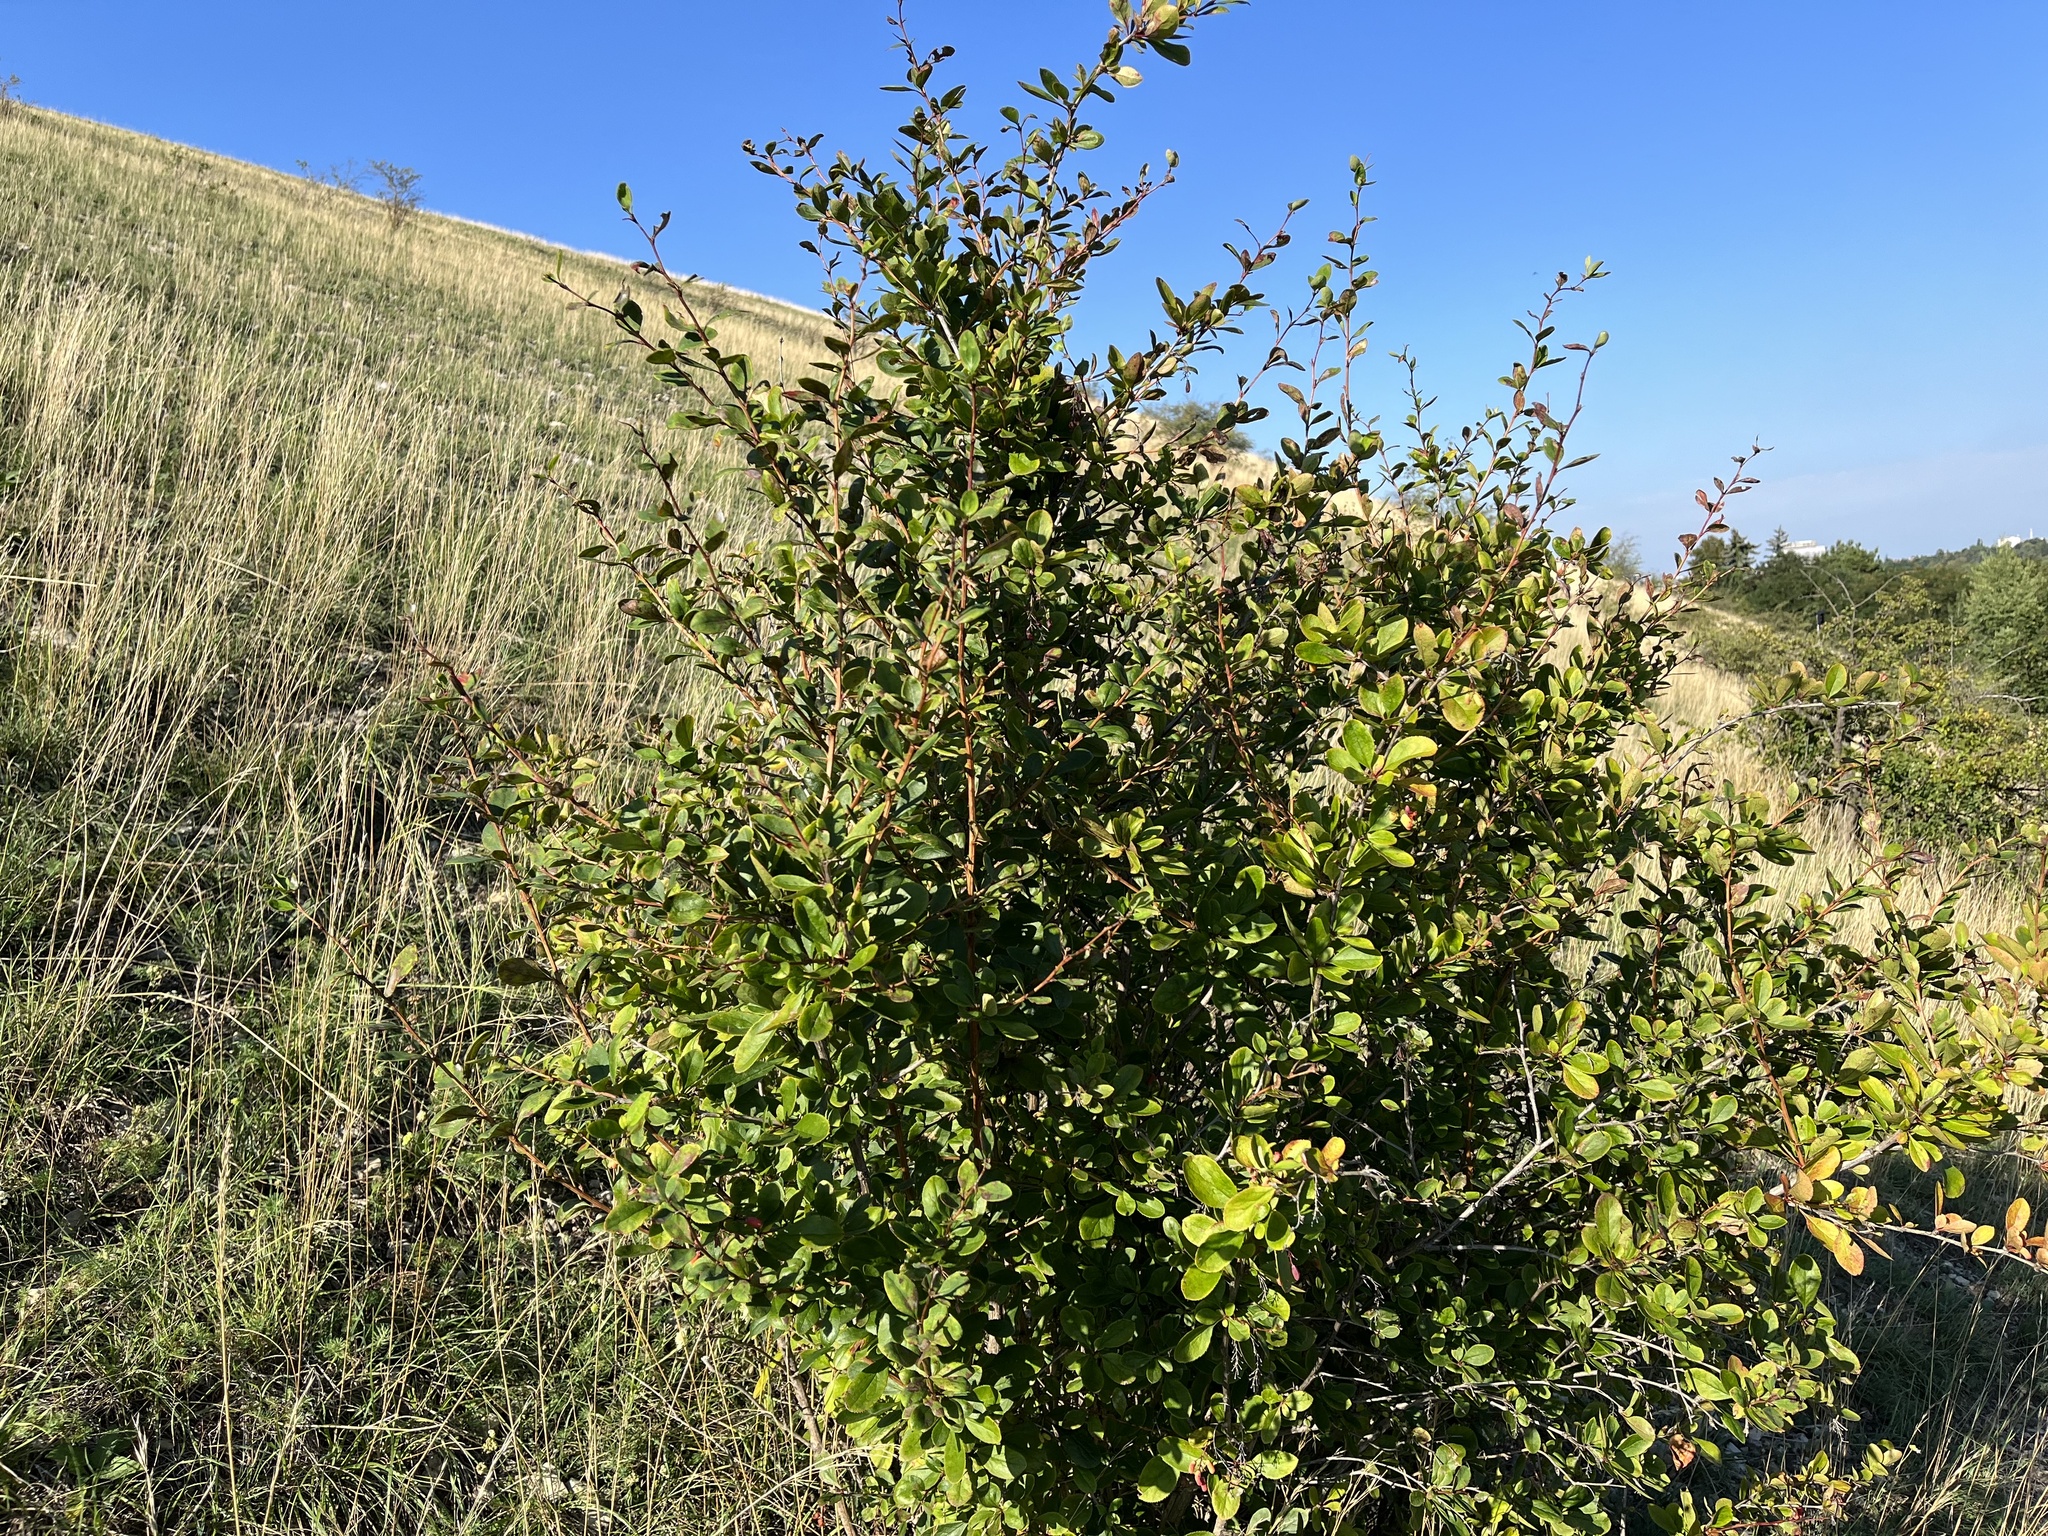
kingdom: Plantae
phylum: Tracheophyta
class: Magnoliopsida
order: Ranunculales
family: Berberidaceae
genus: Berberis
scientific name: Berberis vulgaris
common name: Barberry
